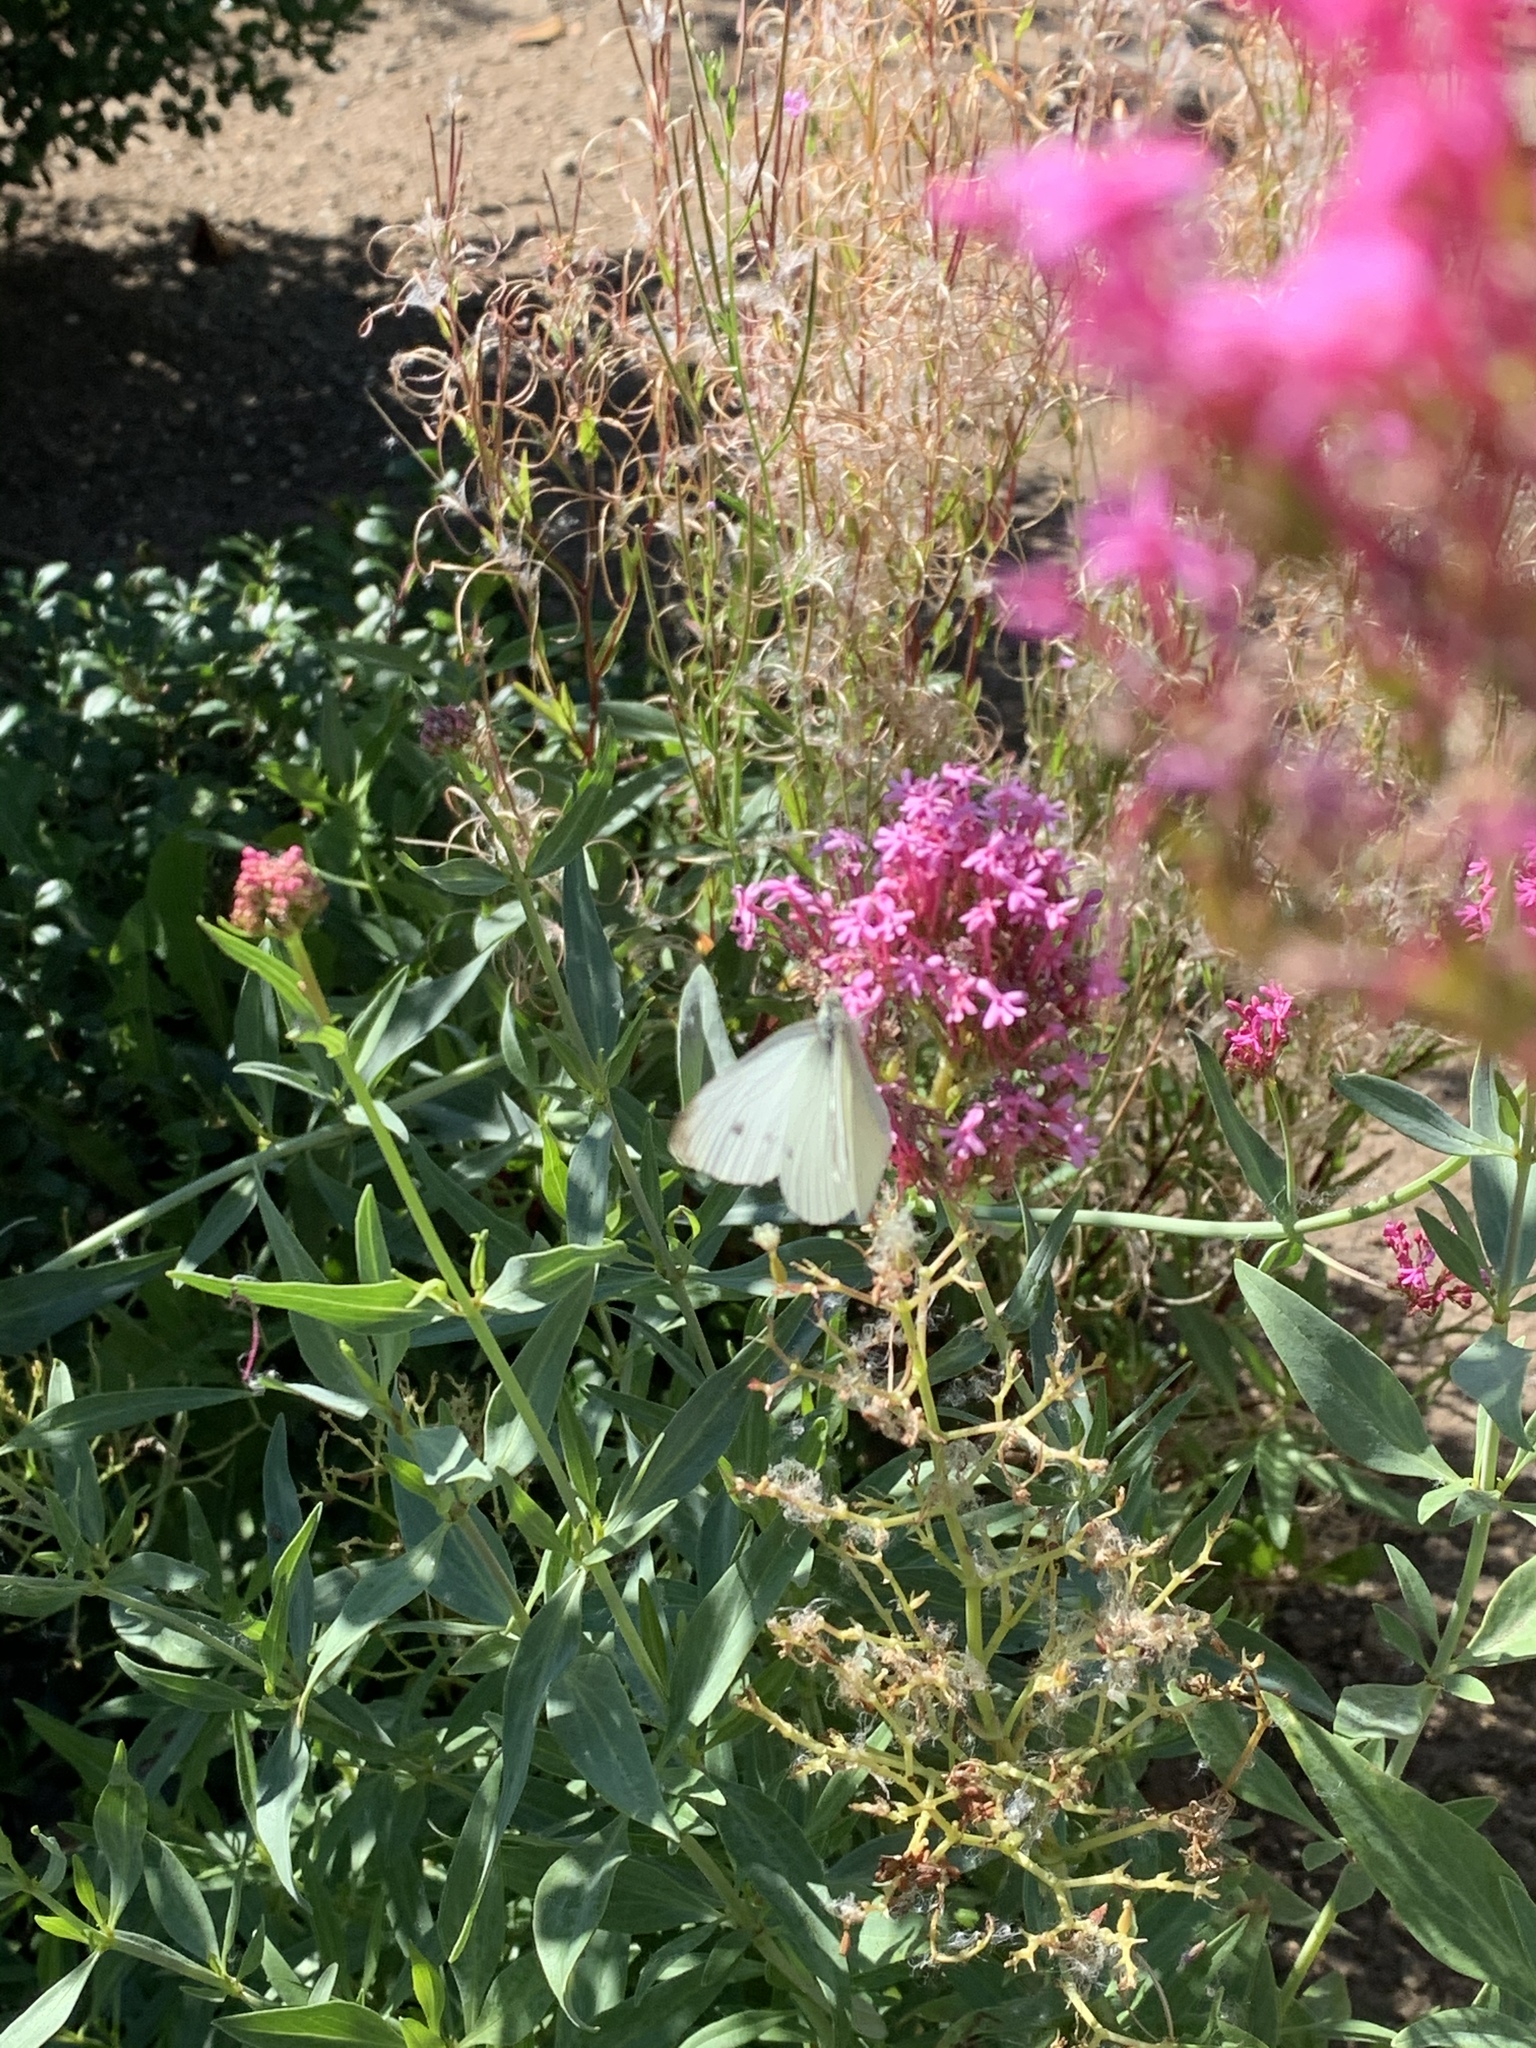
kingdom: Animalia
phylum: Arthropoda
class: Insecta
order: Lepidoptera
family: Pieridae
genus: Pieris
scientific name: Pieris rapae
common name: Small white
